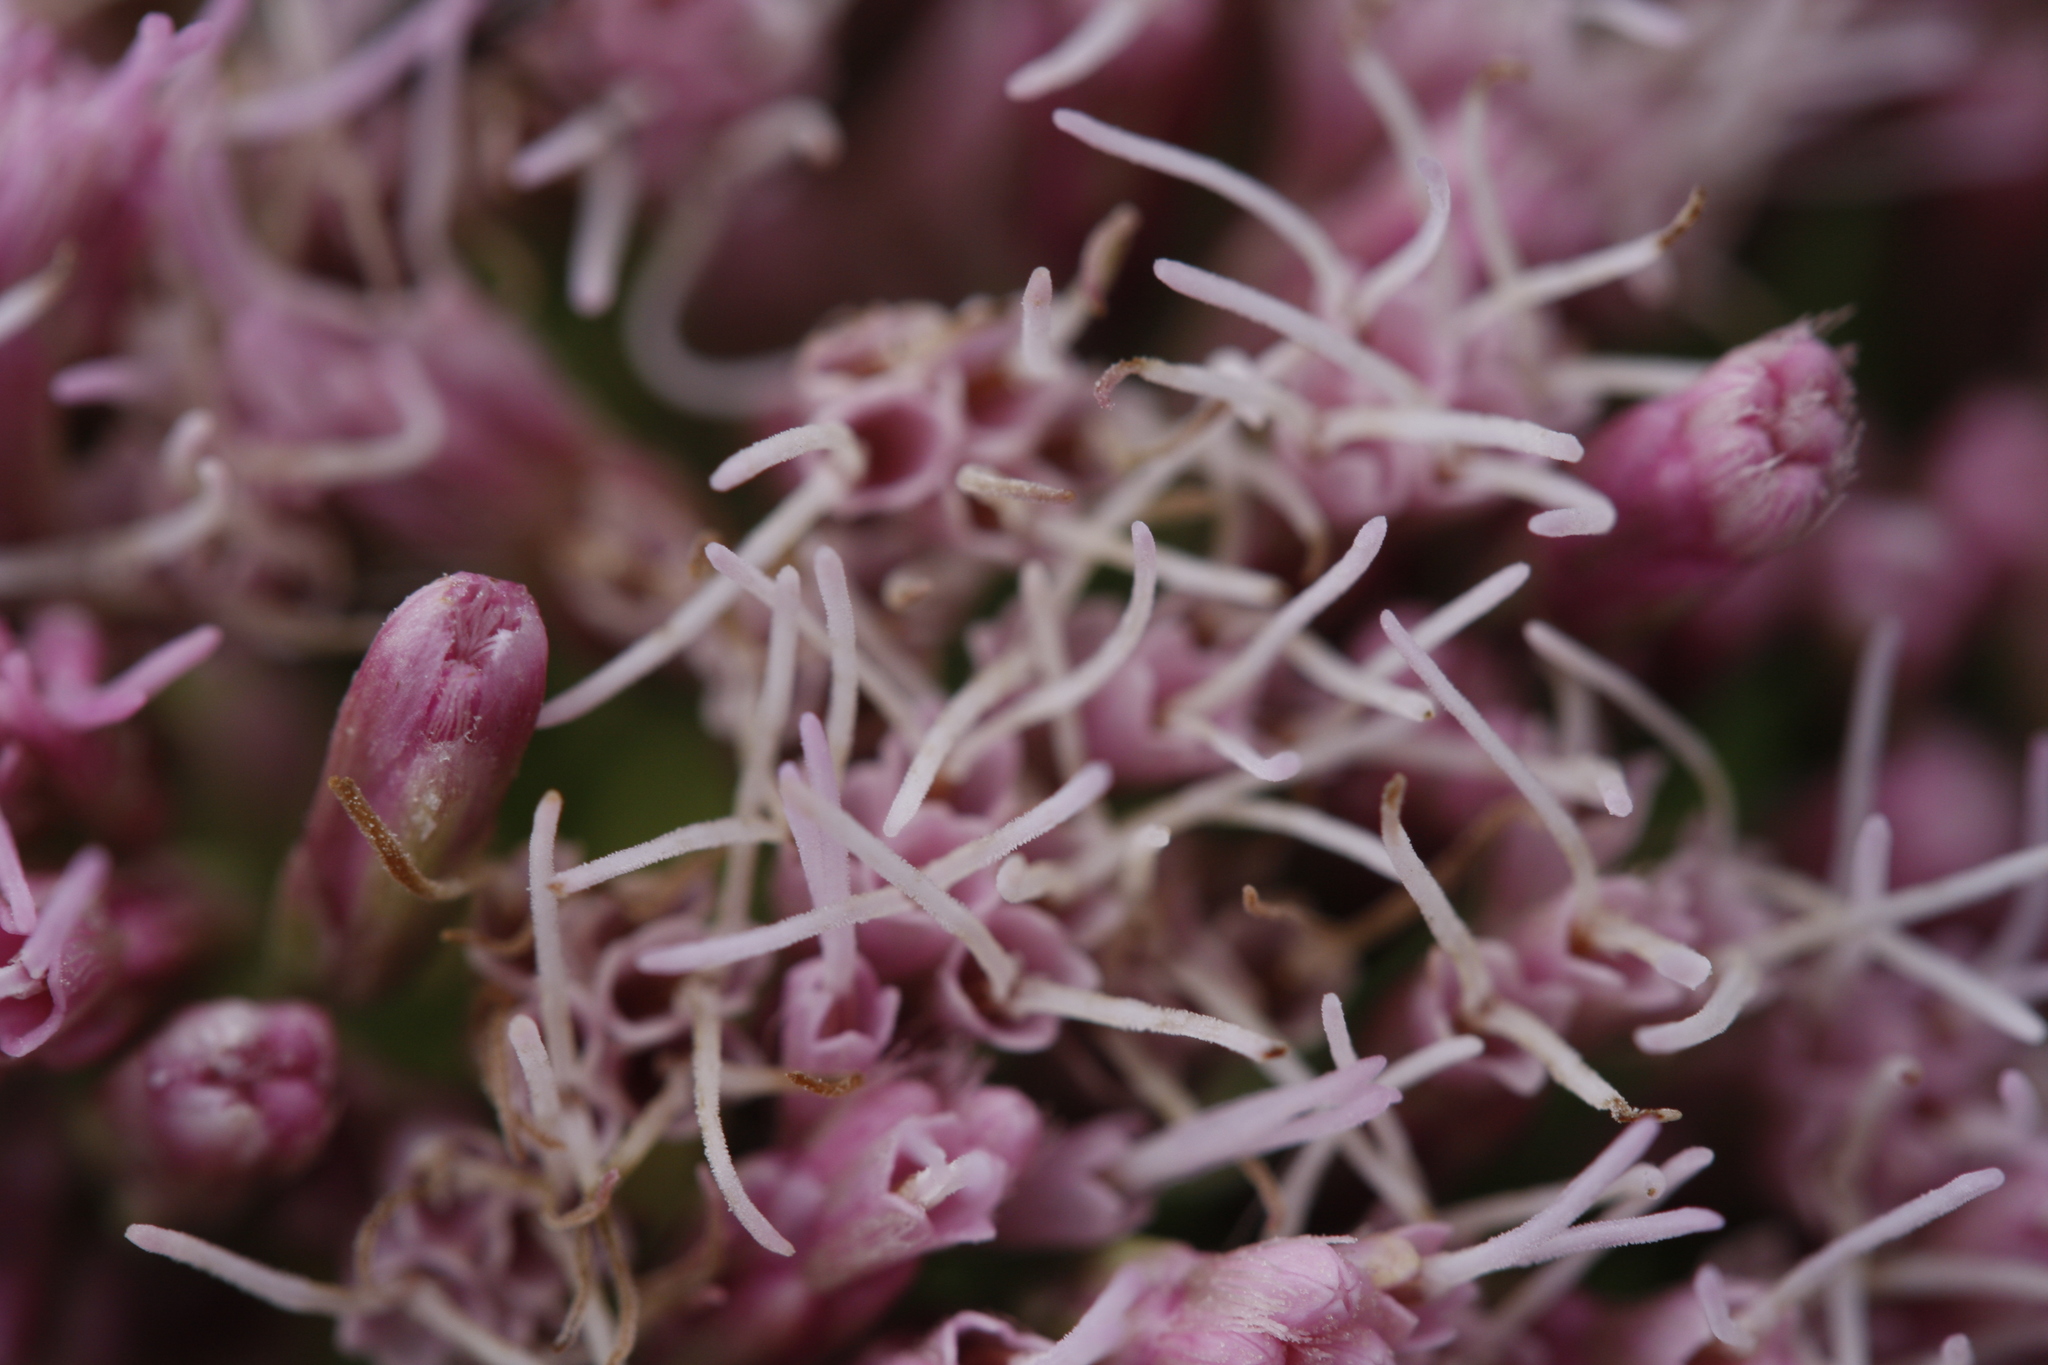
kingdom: Plantae
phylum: Tracheophyta
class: Magnoliopsida
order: Asterales
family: Asteraceae
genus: Eupatorium
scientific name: Eupatorium cannabinum
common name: Hemp-agrimony
